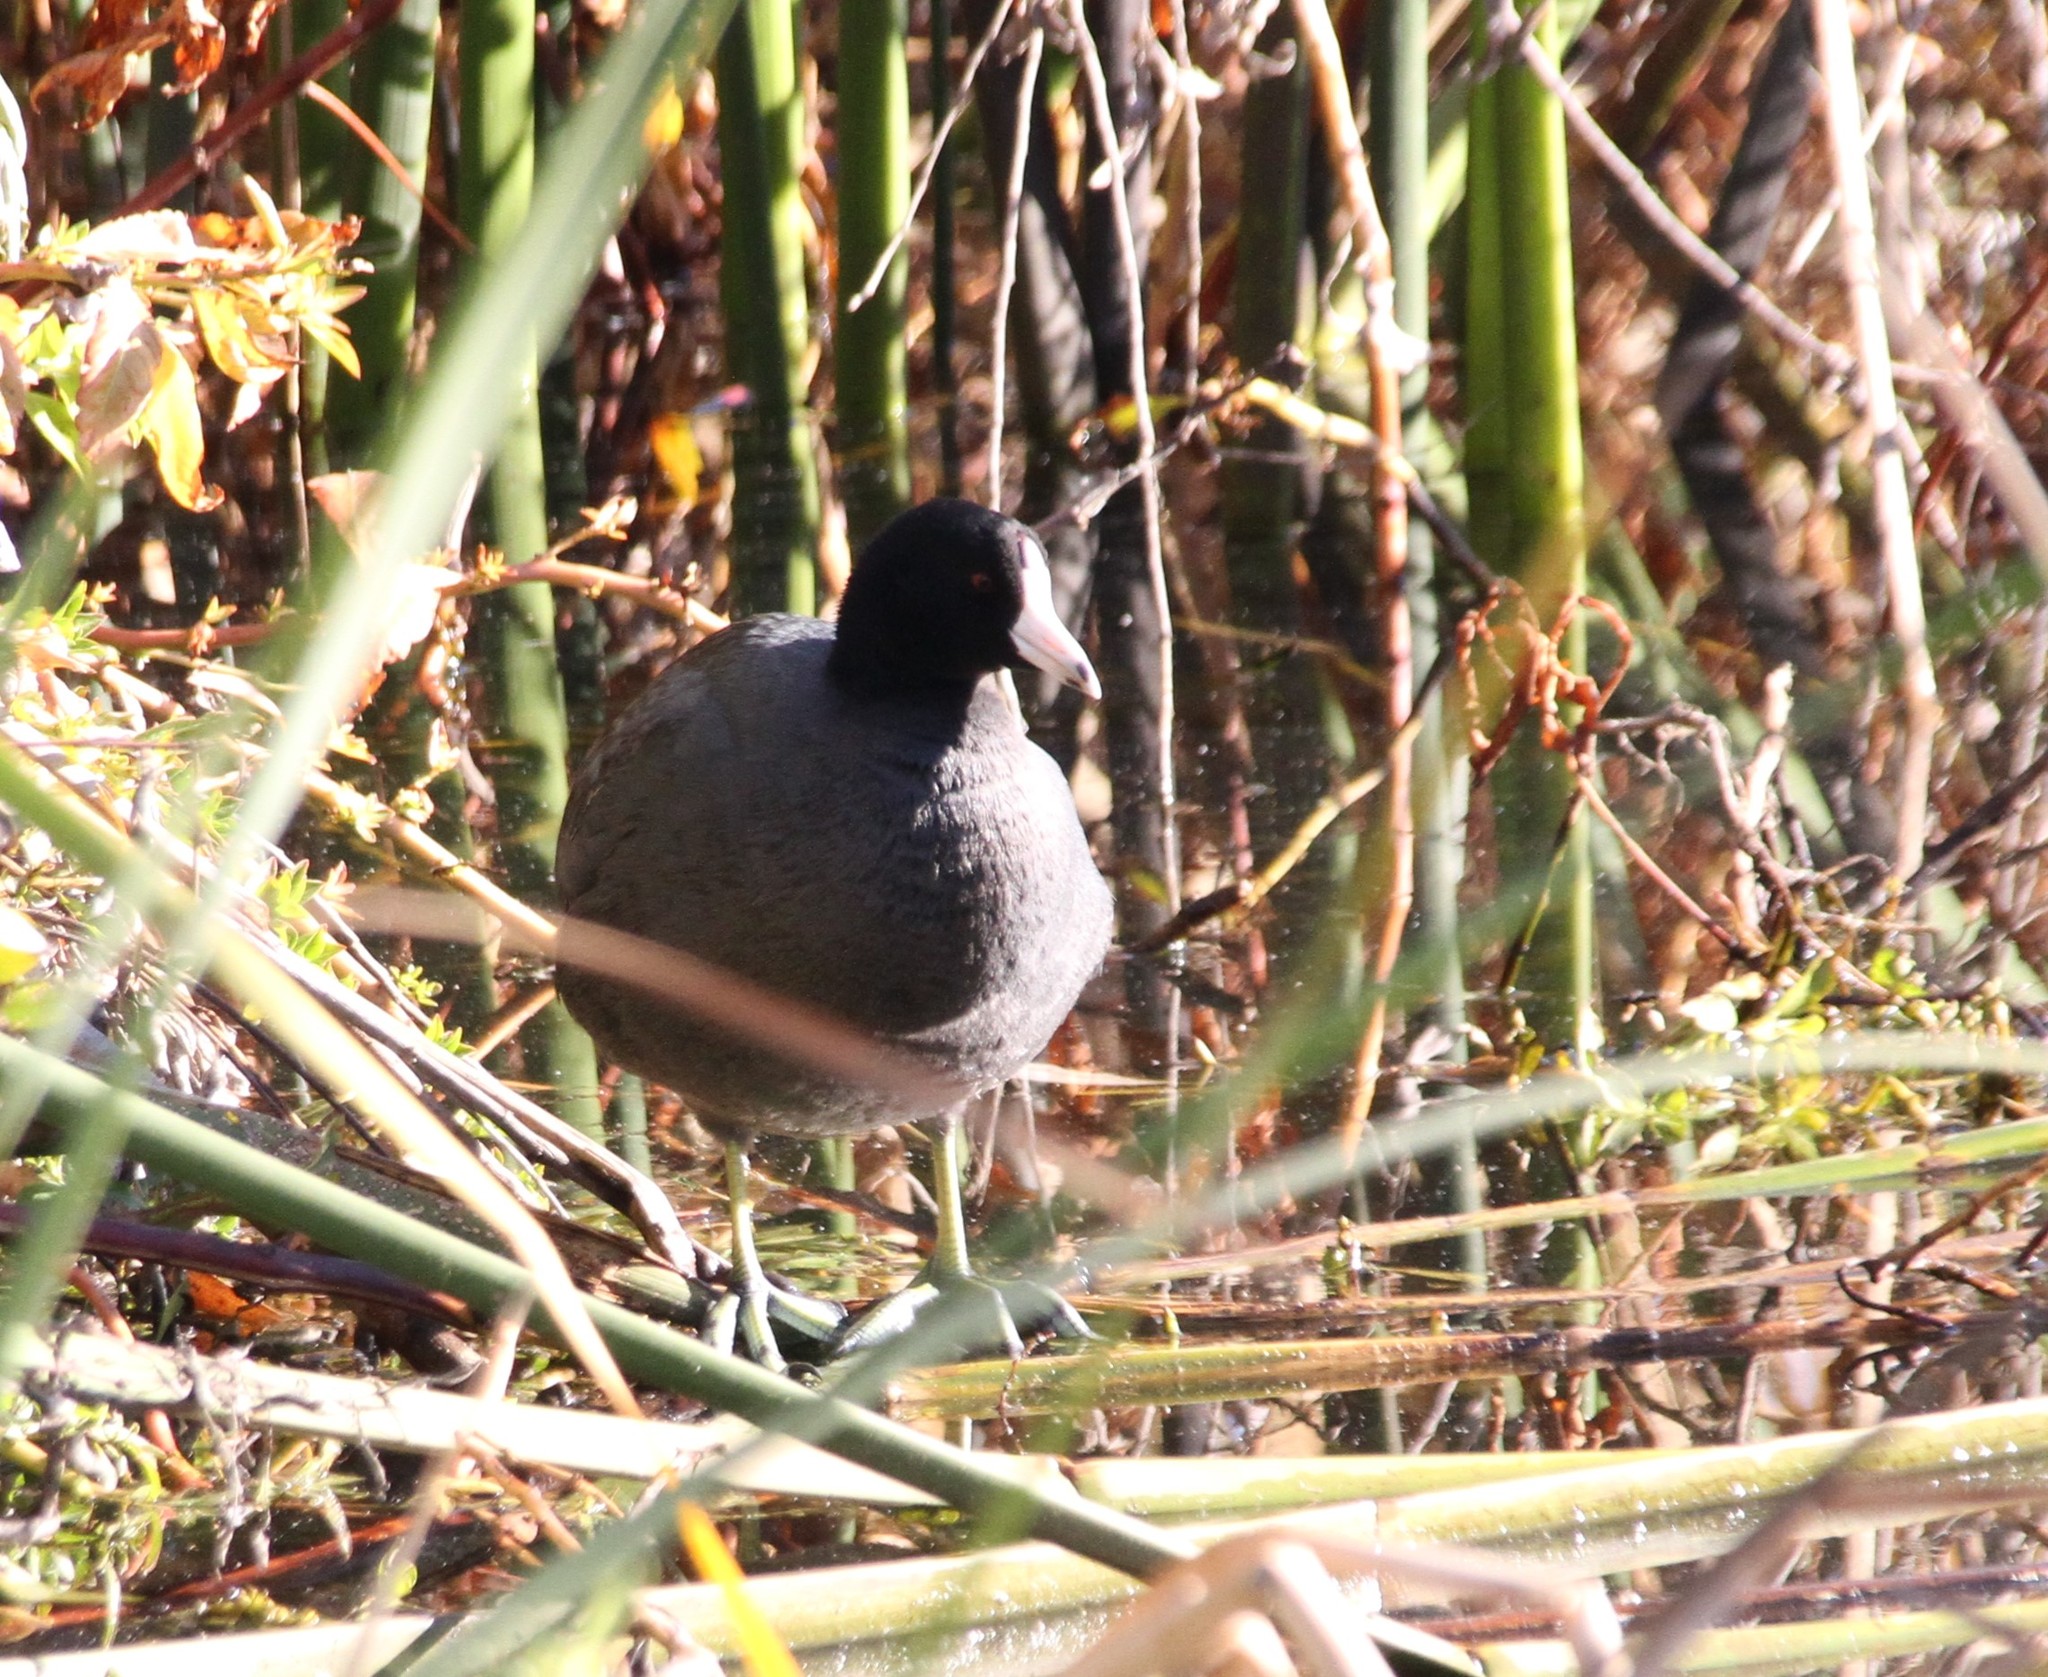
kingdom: Animalia
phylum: Chordata
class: Aves
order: Gruiformes
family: Rallidae
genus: Fulica
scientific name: Fulica americana
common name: American coot
